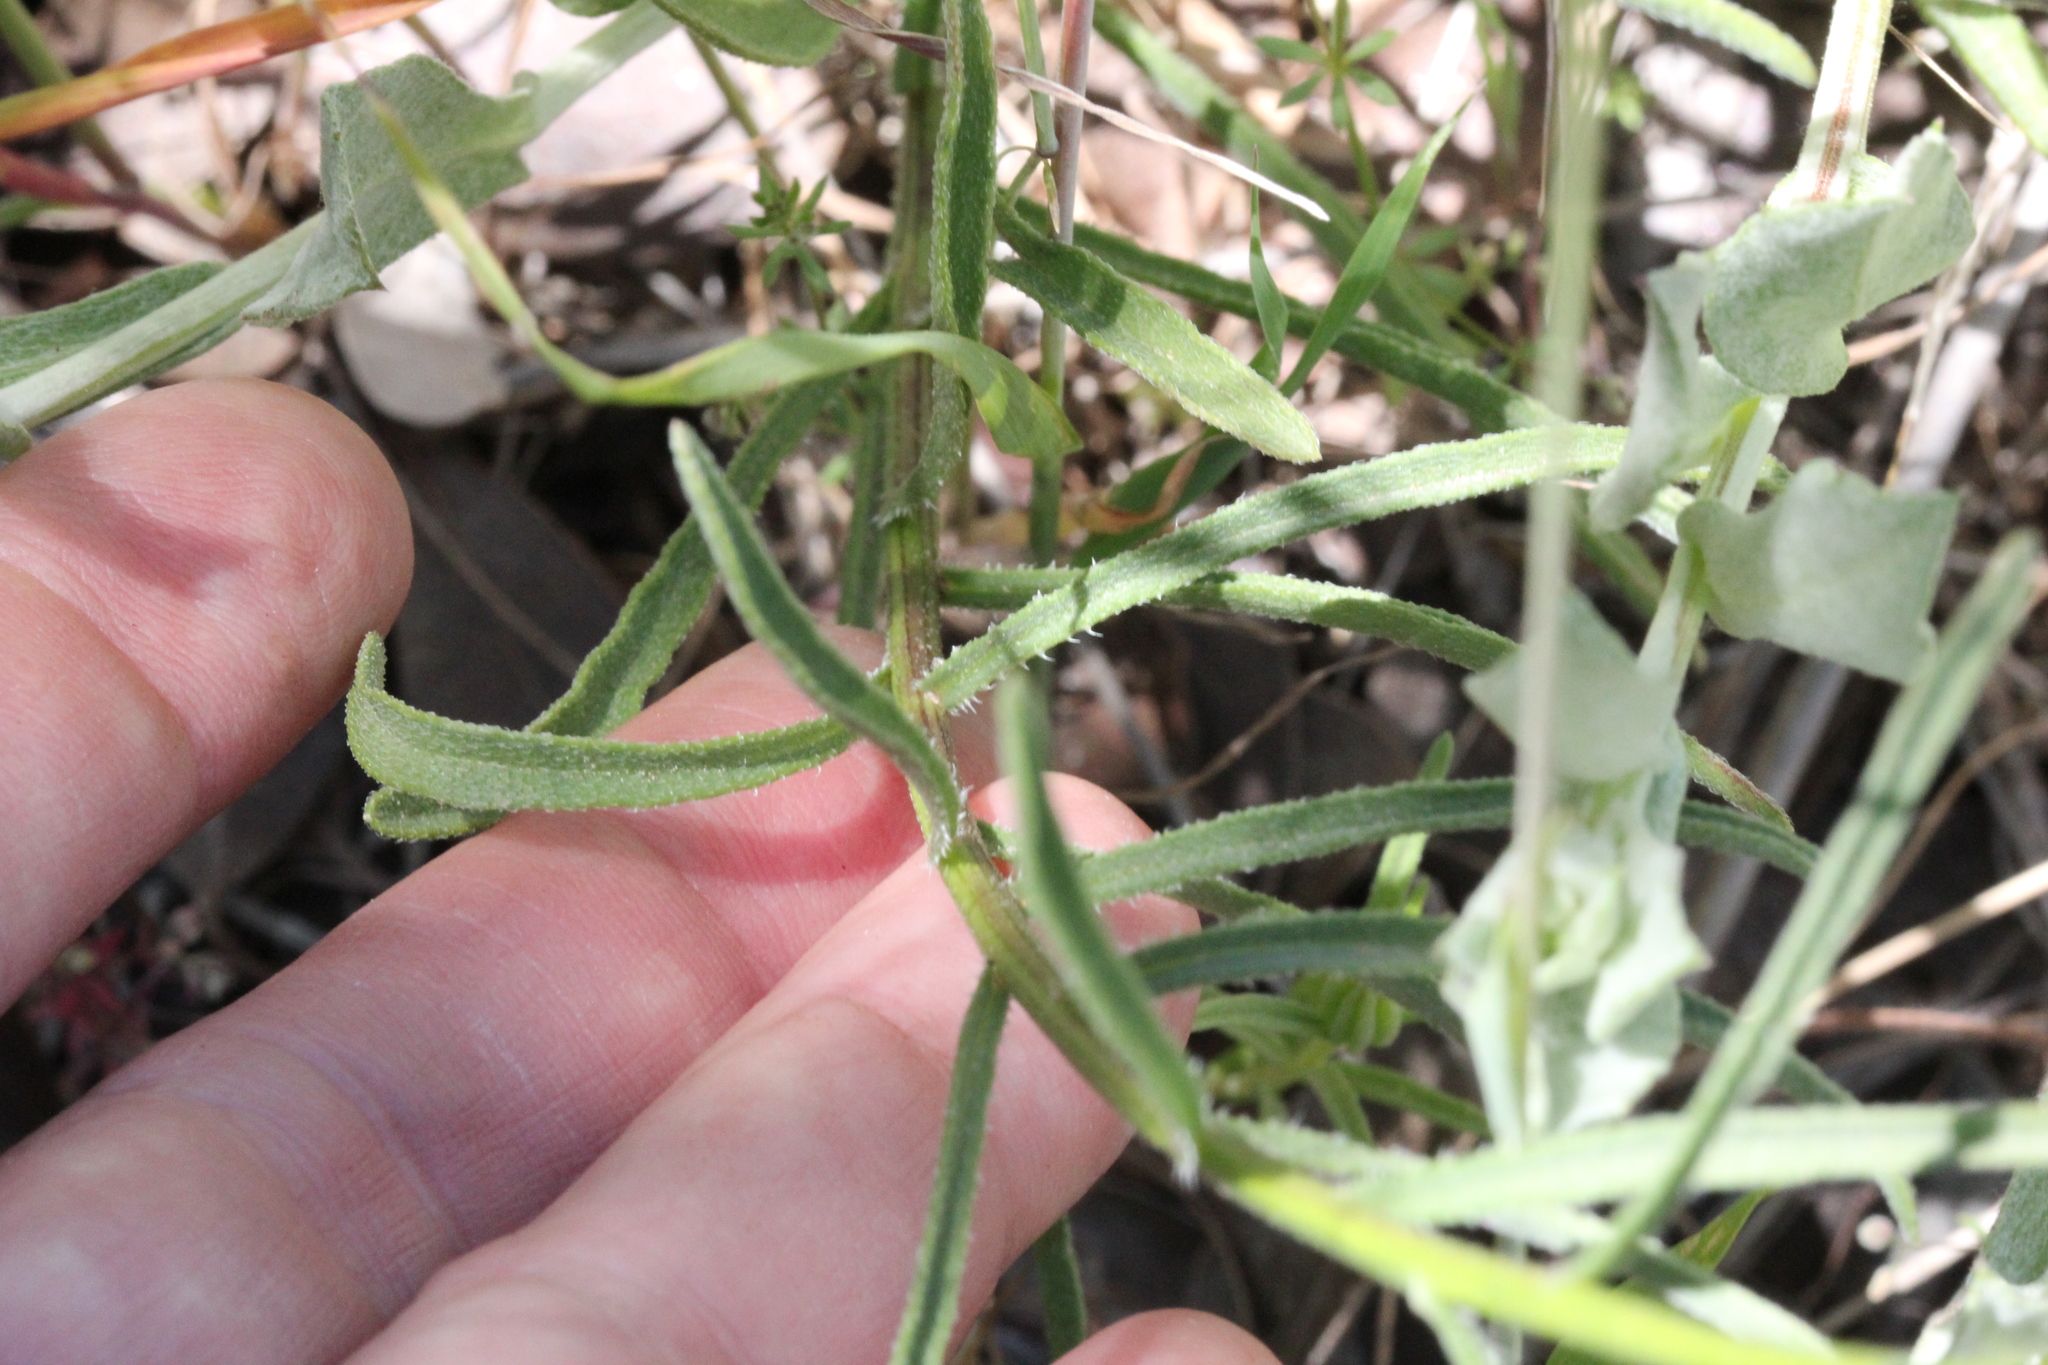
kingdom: Plantae
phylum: Tracheophyta
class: Magnoliopsida
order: Asterales
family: Asteraceae
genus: Erigeron
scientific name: Erigeron foliosus
